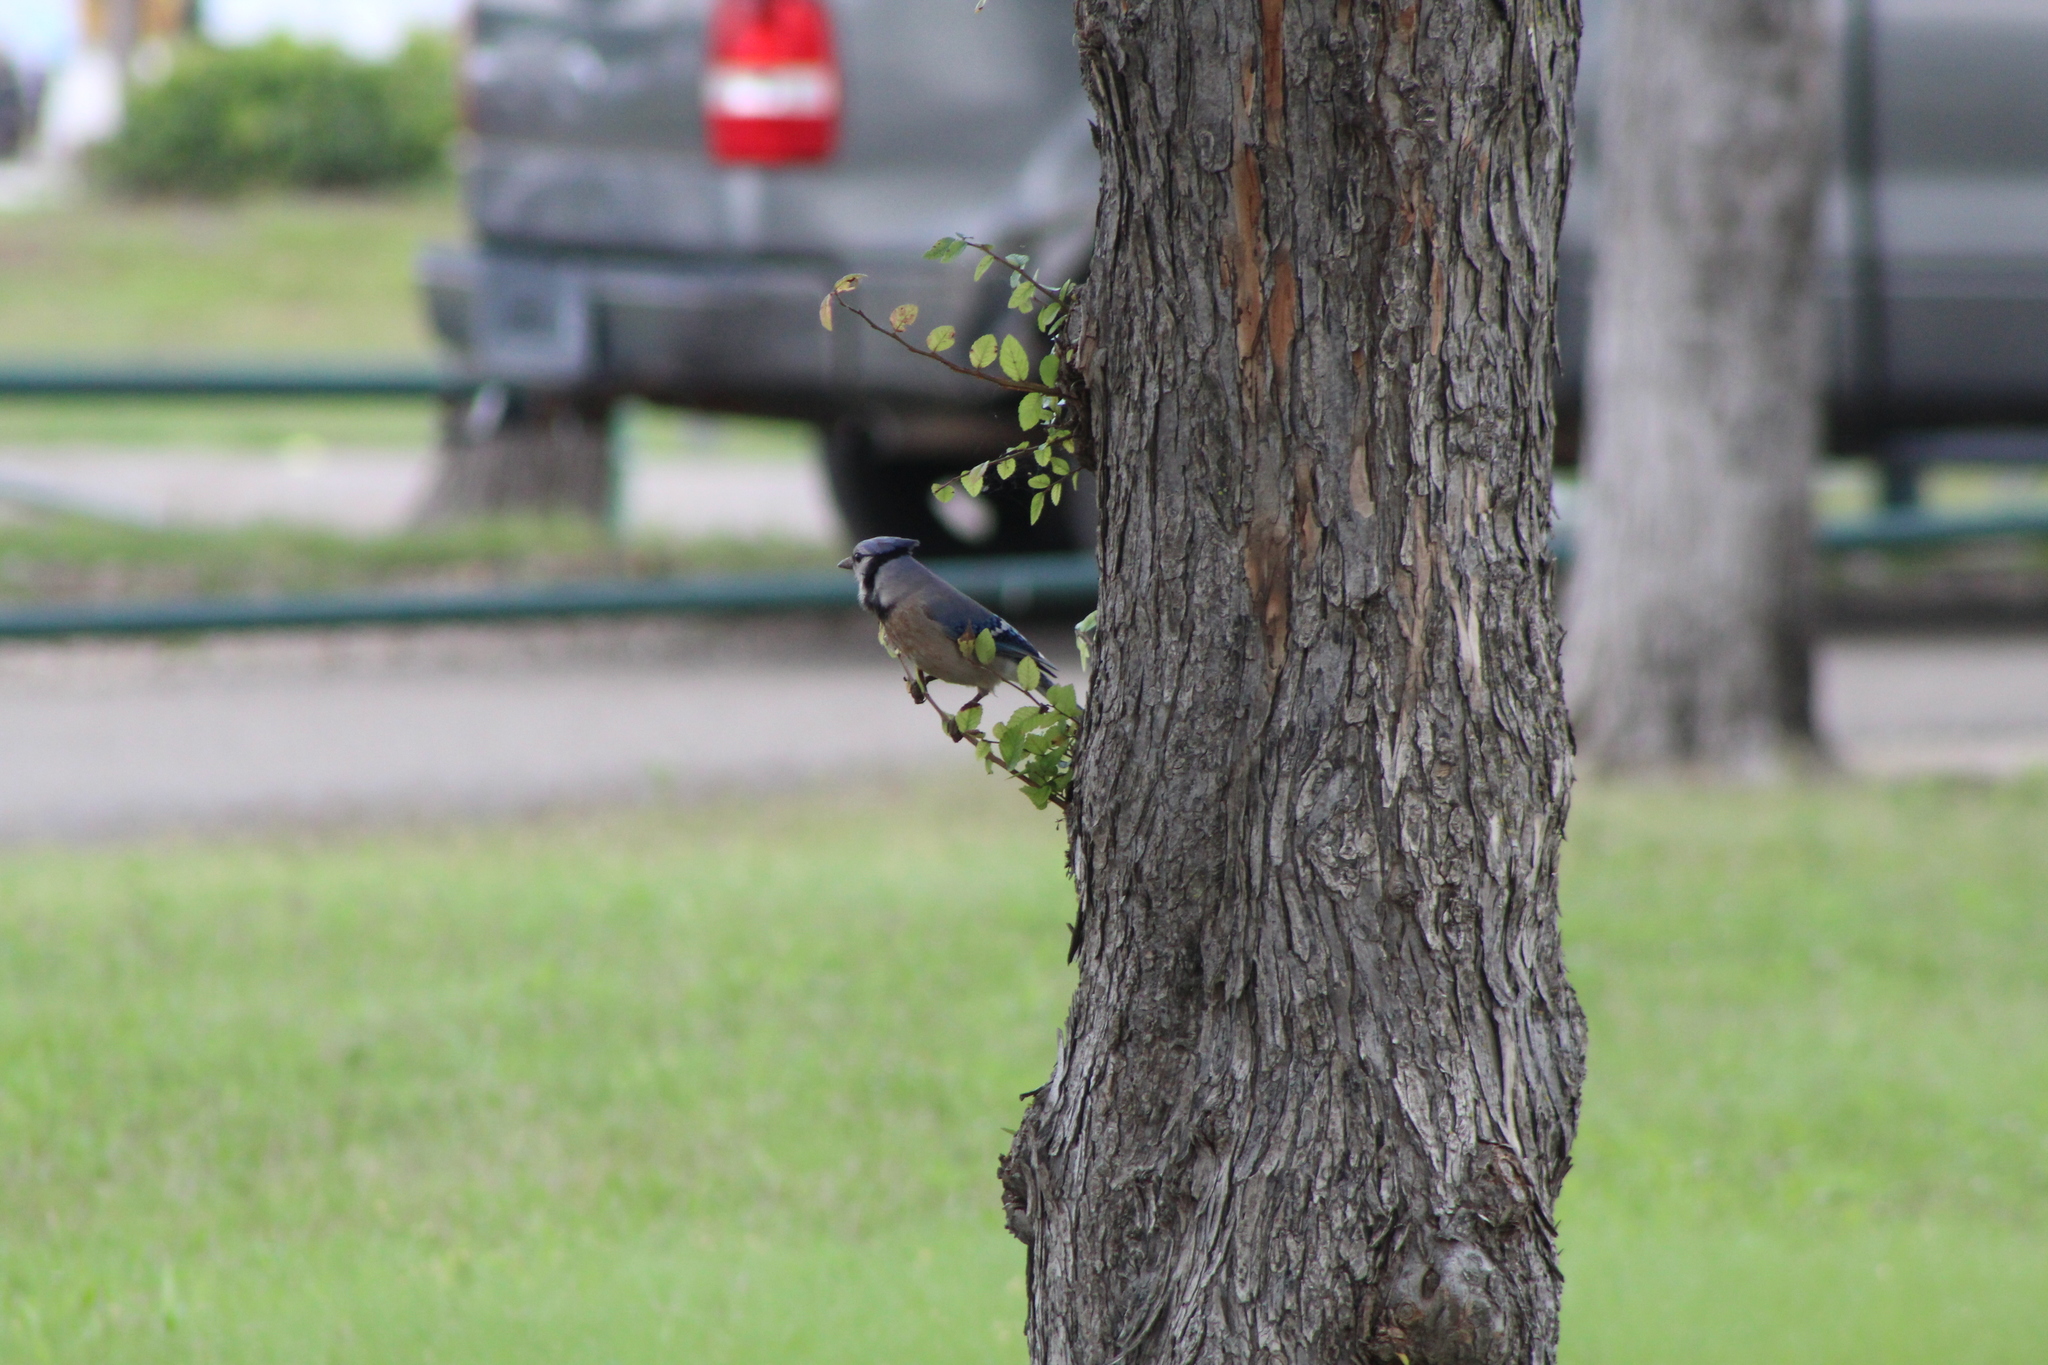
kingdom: Animalia
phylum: Chordata
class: Aves
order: Passeriformes
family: Corvidae
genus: Cyanocitta
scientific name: Cyanocitta cristata
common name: Blue jay
